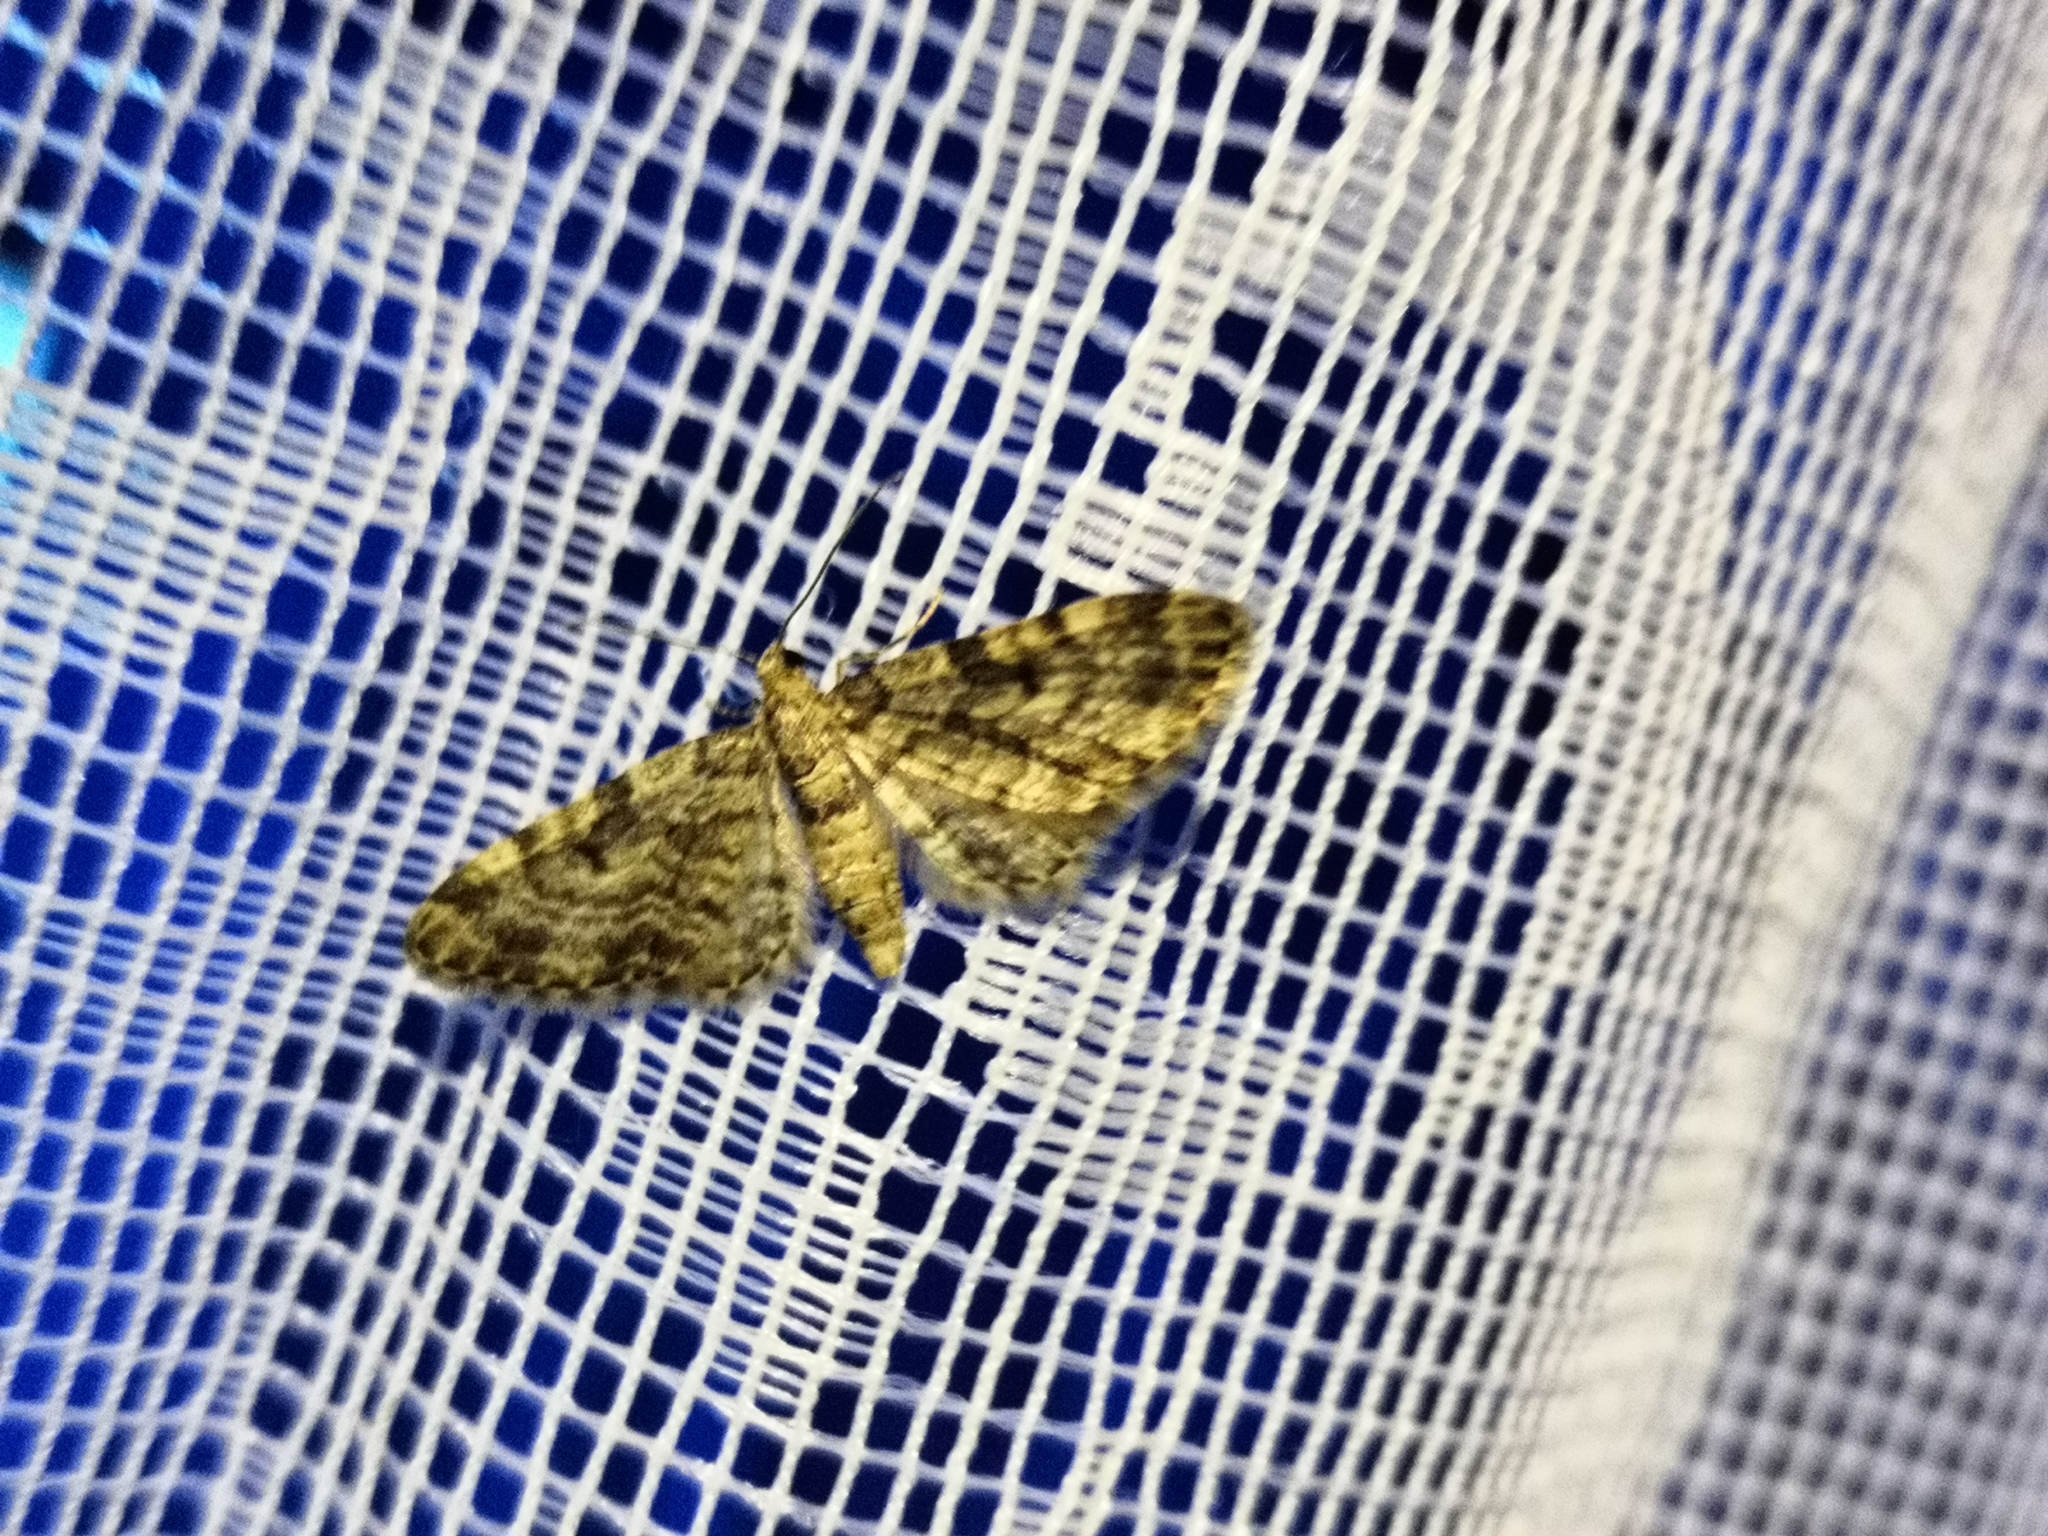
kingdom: Animalia
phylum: Arthropoda
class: Insecta
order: Lepidoptera
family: Geometridae
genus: Eupithecia
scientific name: Eupithecia tantillaria
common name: Dwarf pug
